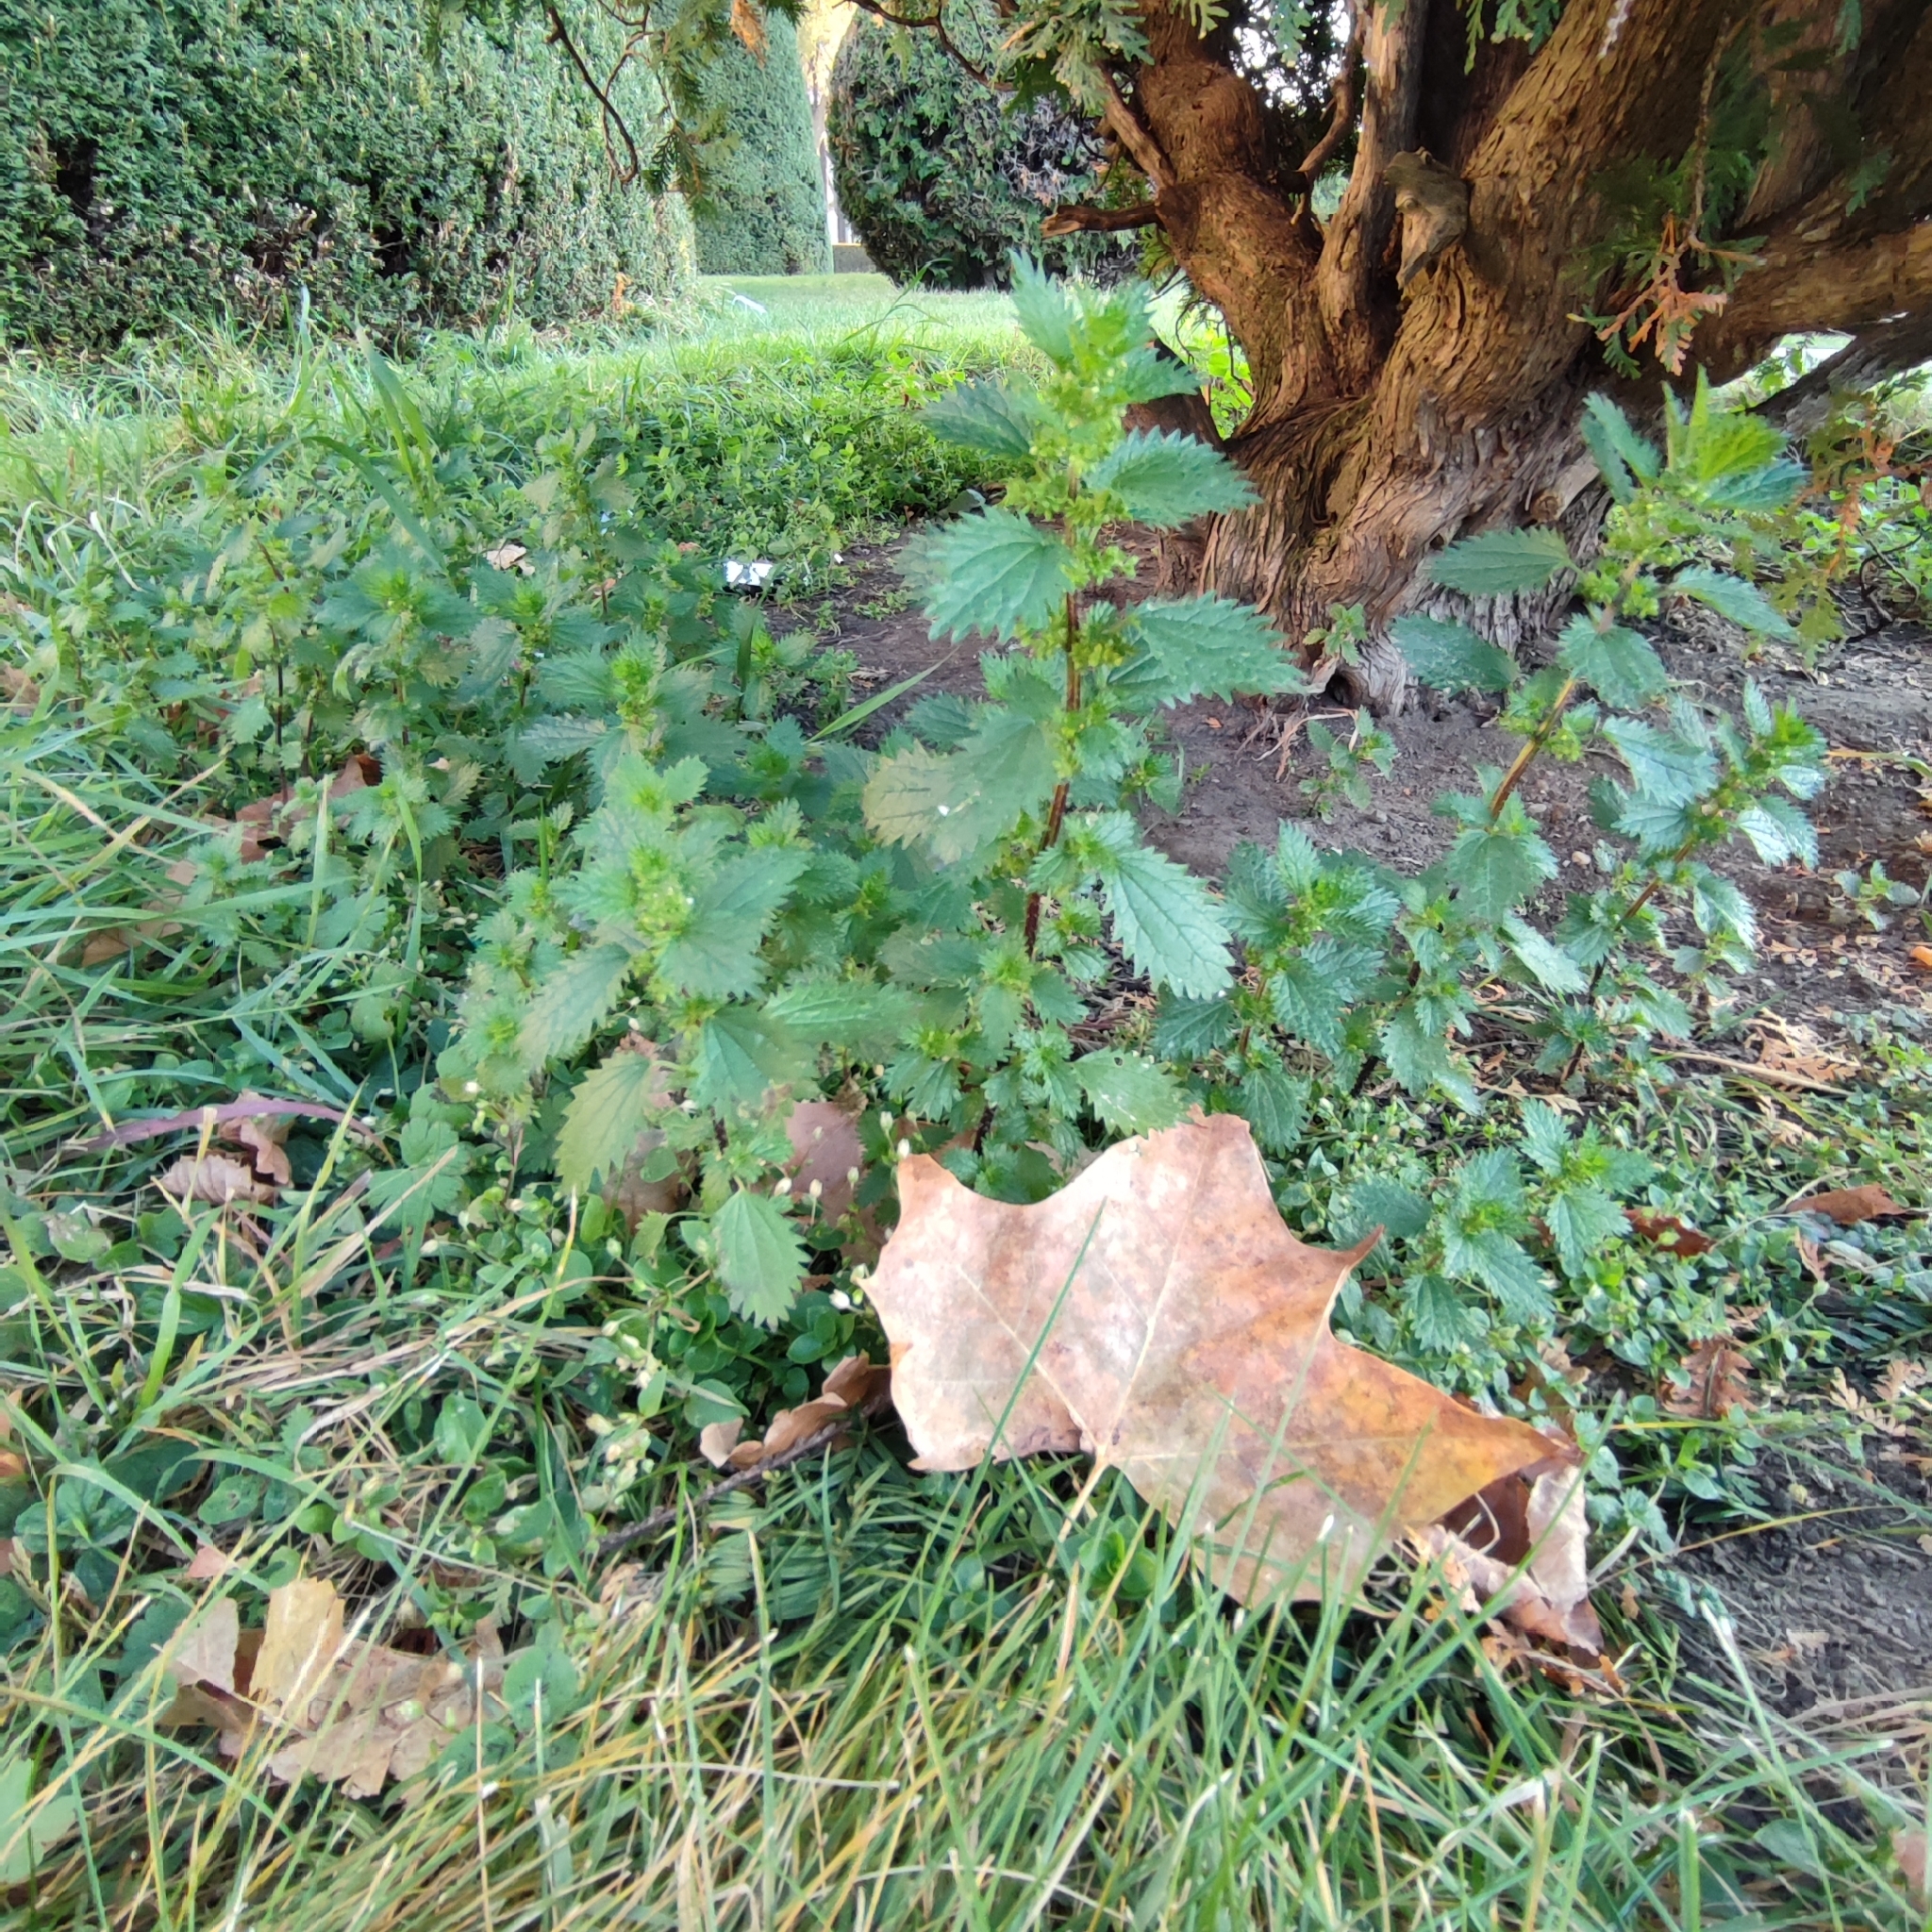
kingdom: Plantae
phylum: Tracheophyta
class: Magnoliopsida
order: Rosales
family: Urticaceae
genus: Urtica
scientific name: Urtica urens
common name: Dwarf nettle
